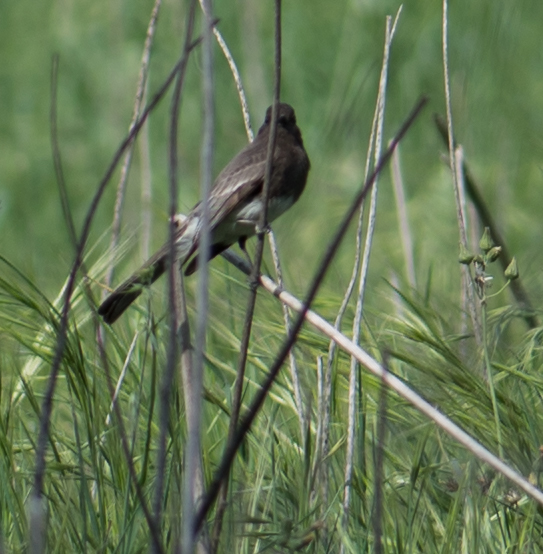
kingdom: Animalia
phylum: Chordata
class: Aves
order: Passeriformes
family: Tyrannidae
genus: Sayornis
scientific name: Sayornis nigricans
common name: Black phoebe
